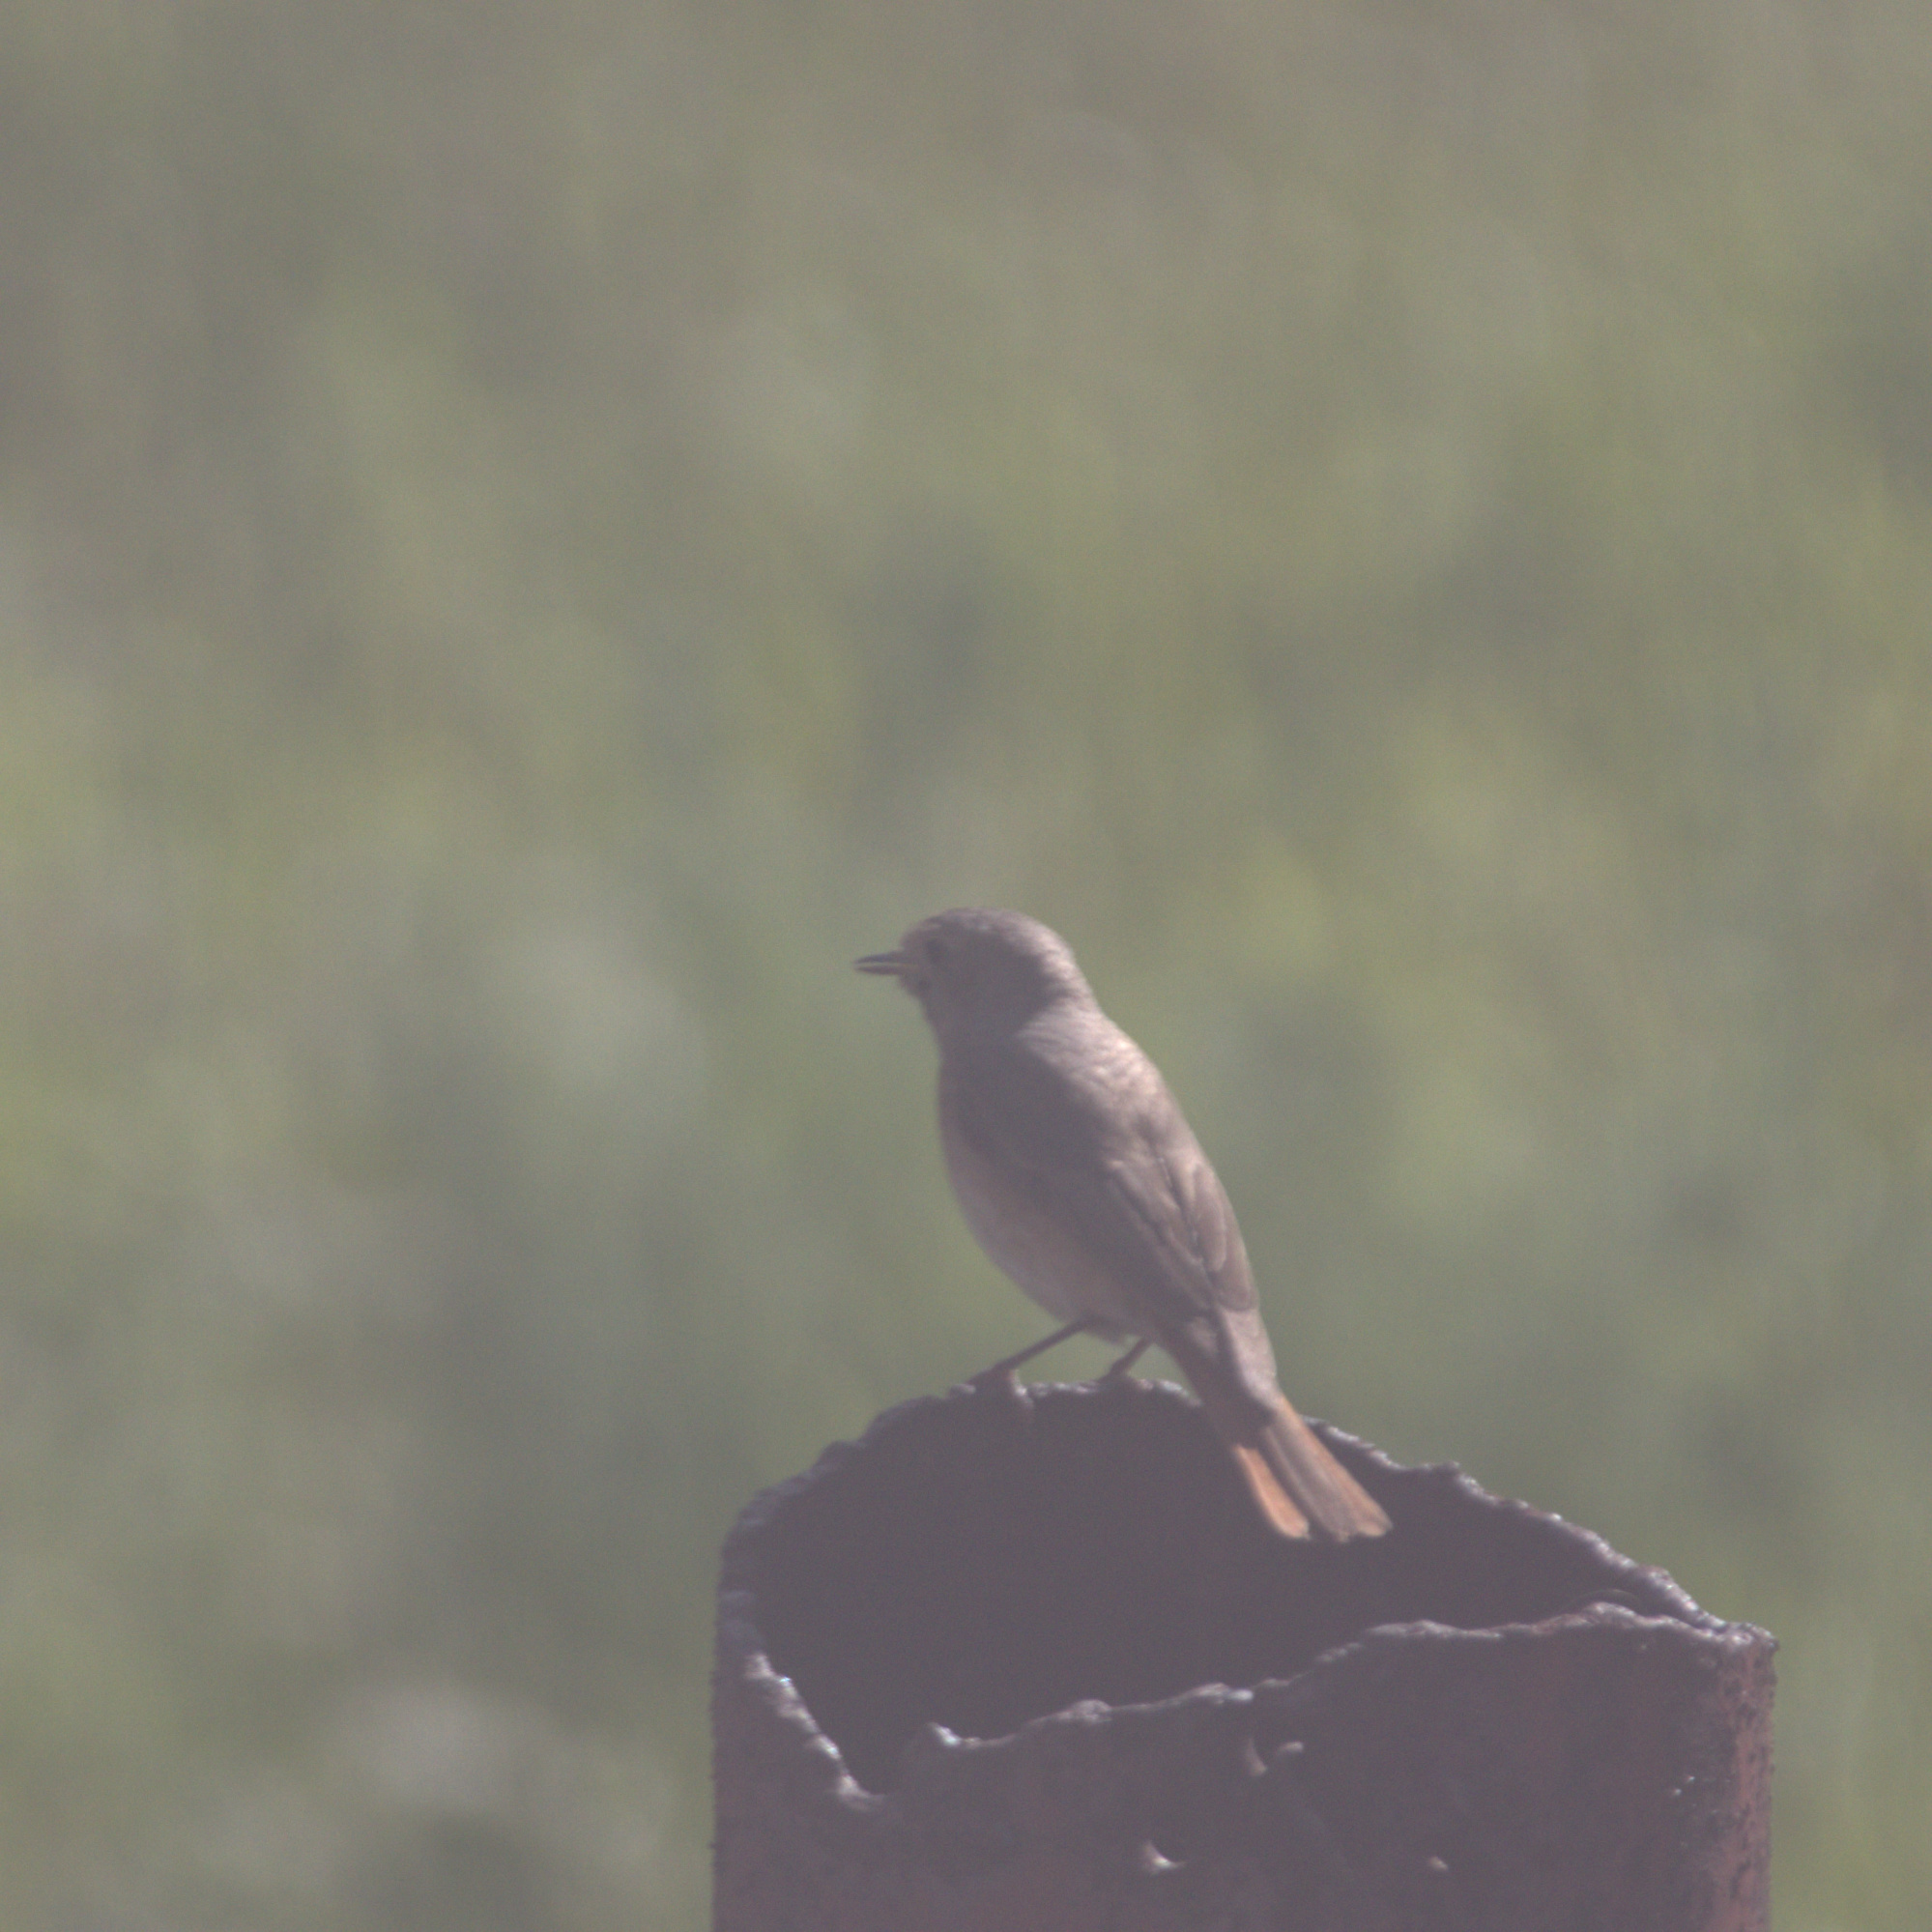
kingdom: Animalia
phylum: Chordata
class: Aves
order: Passeriformes
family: Muscicapidae
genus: Phoenicurus
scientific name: Phoenicurus phoenicurus
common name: Common redstart
